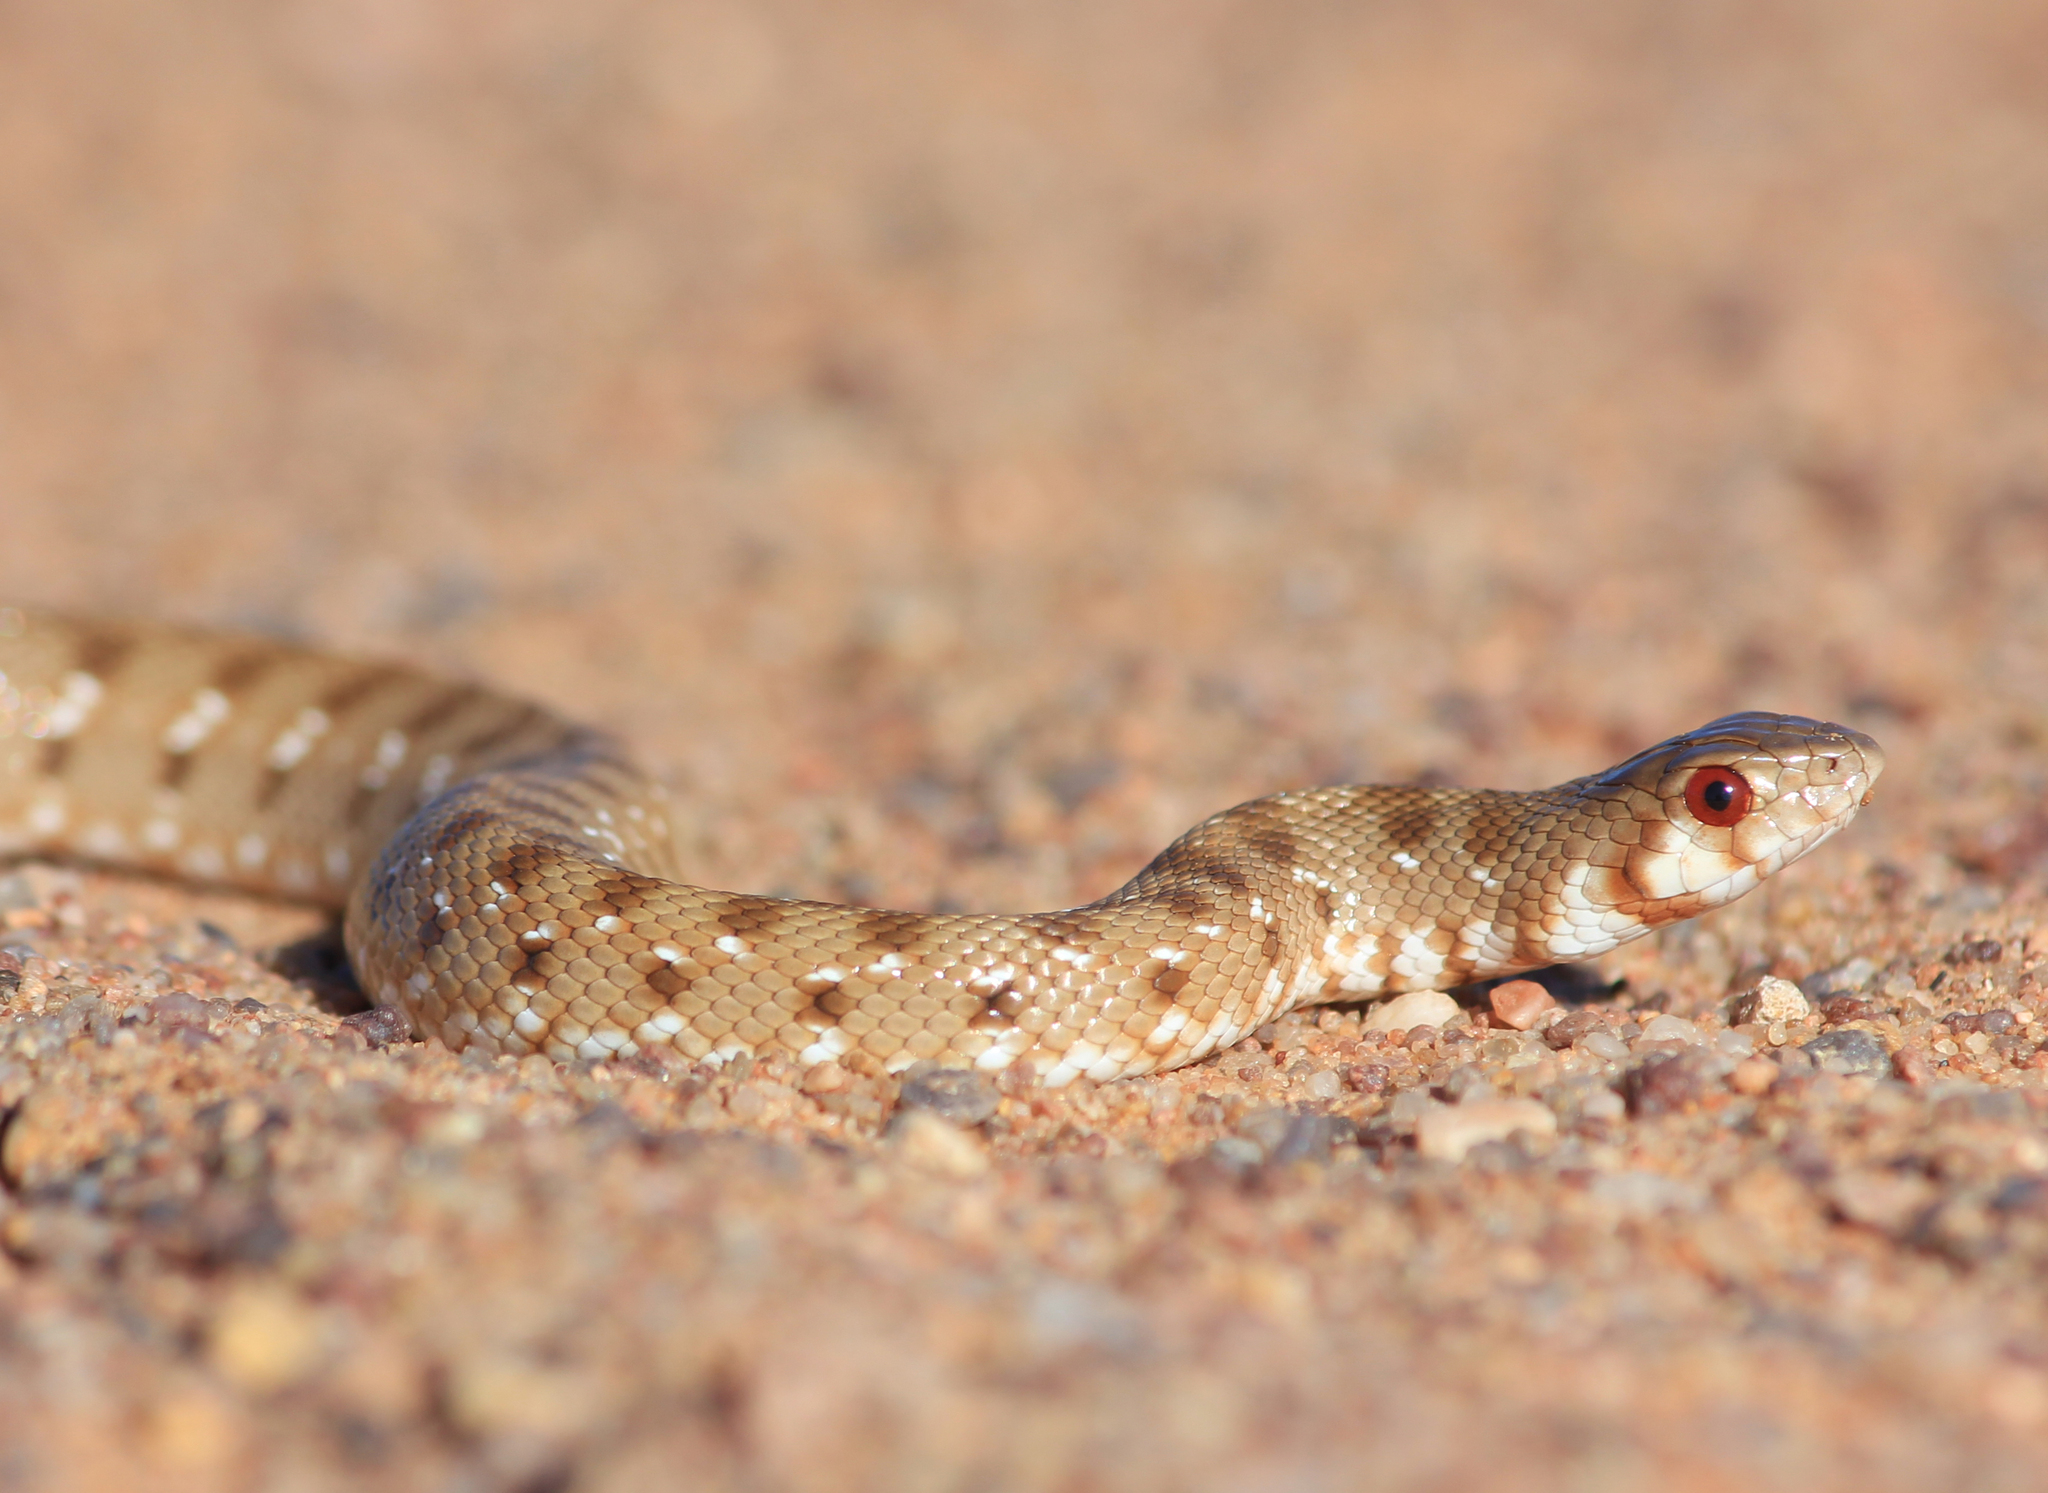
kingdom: Animalia
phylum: Chordata
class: Squamata
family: Pseudaspididae
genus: Pseudaspis
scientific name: Pseudaspis cana
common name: Mole snake
